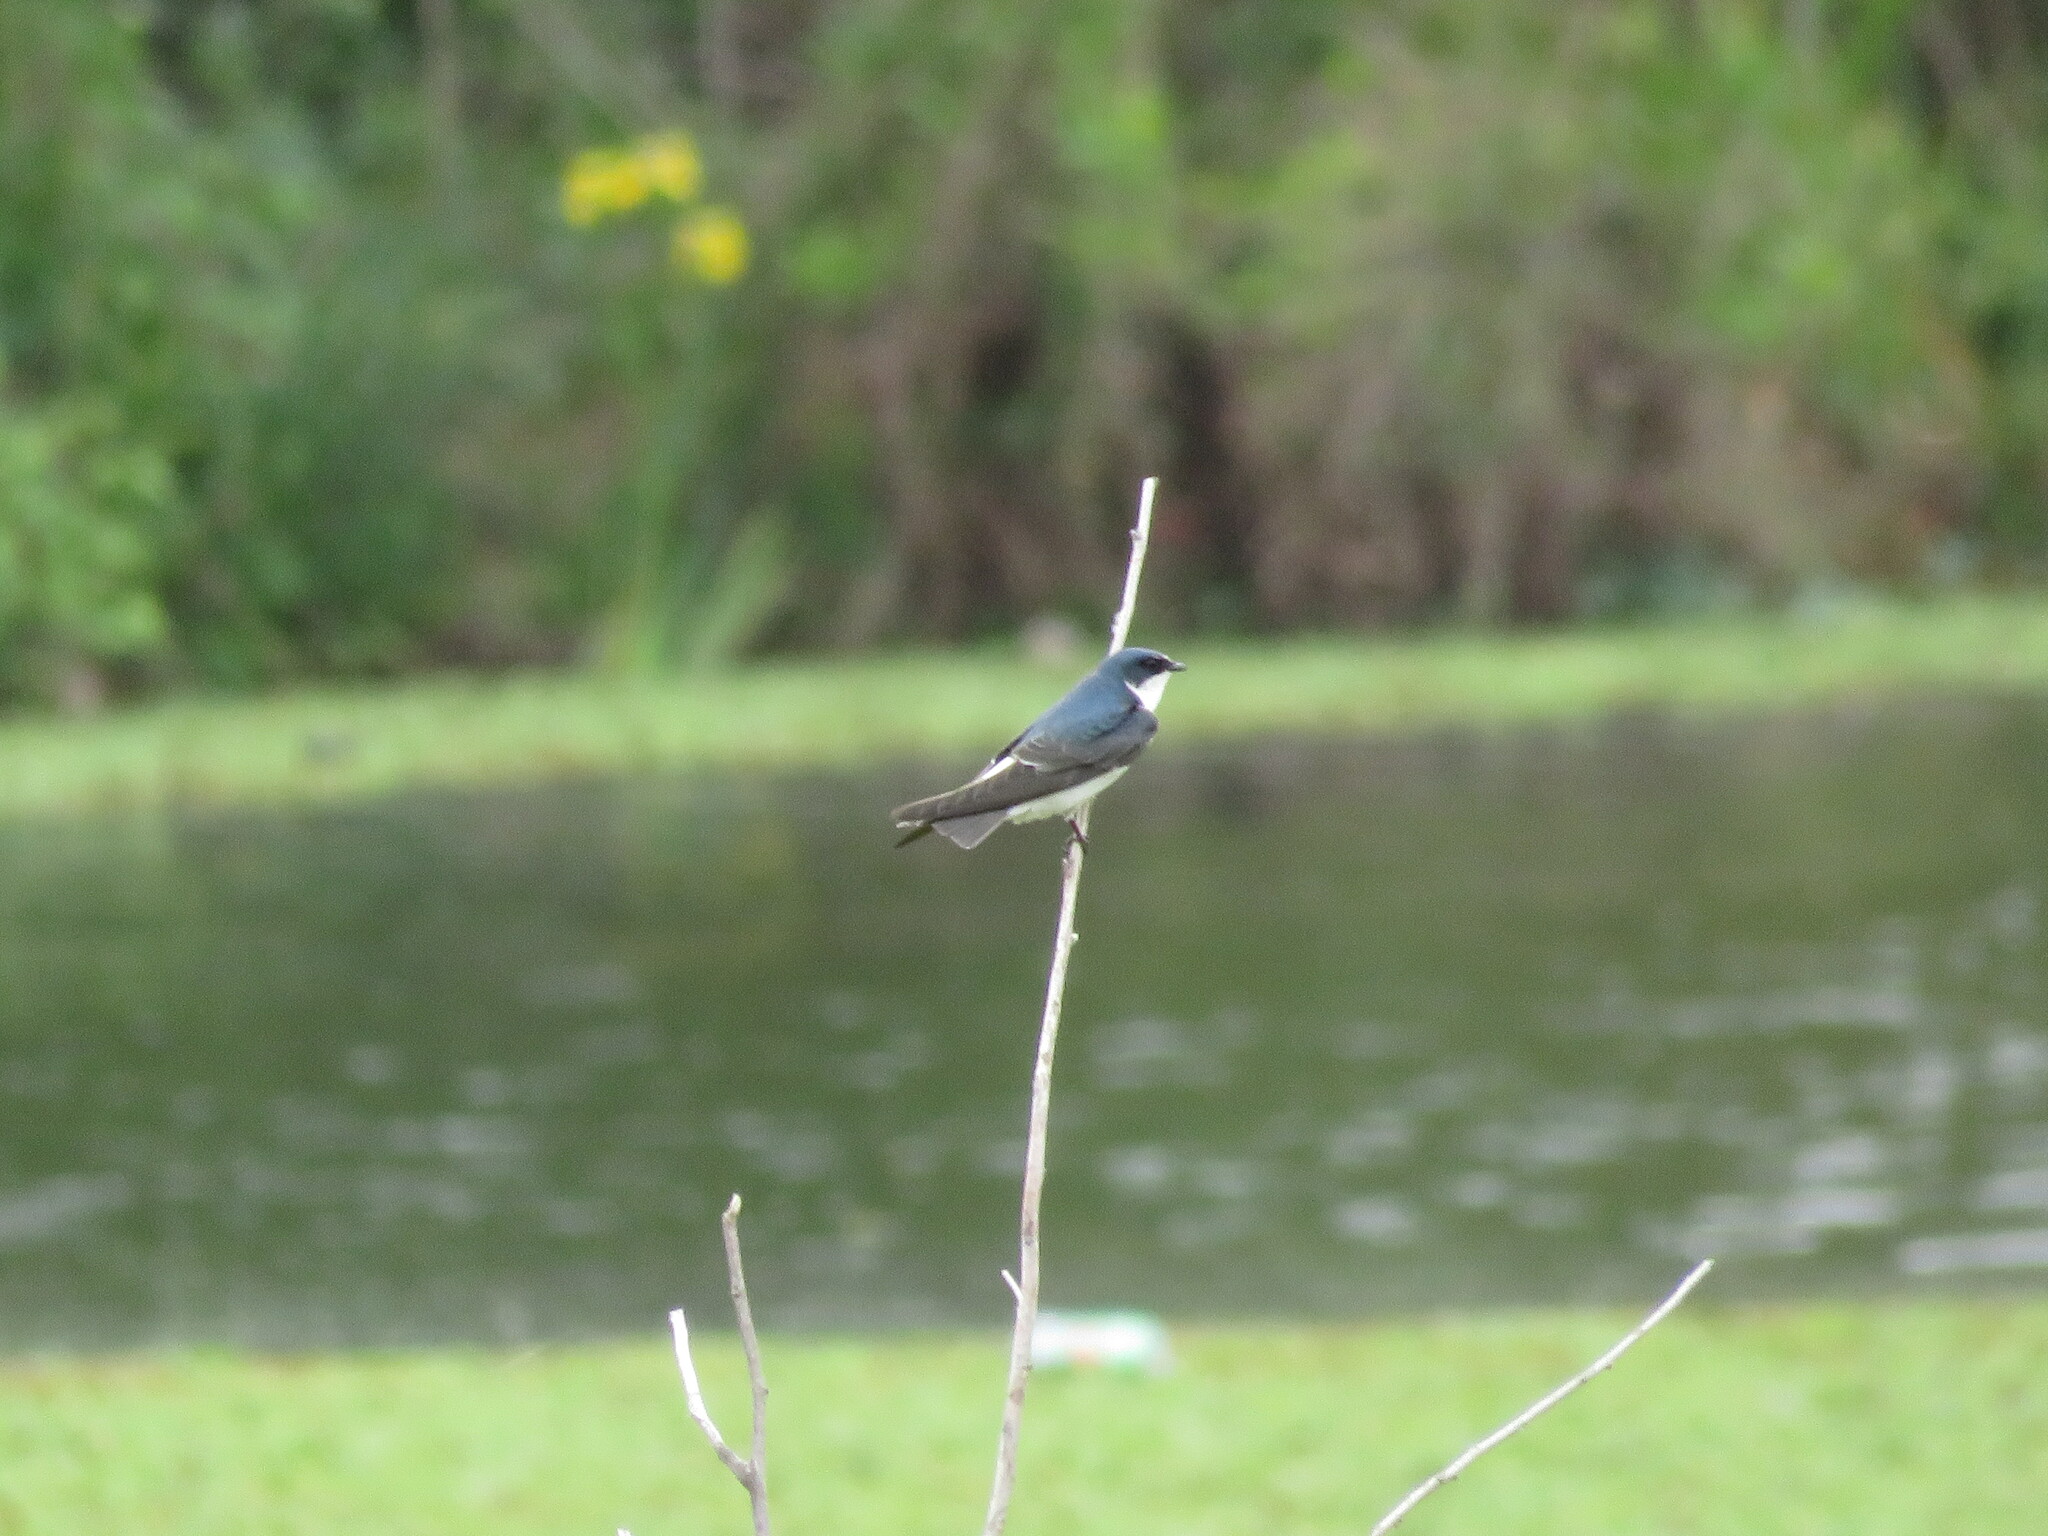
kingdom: Animalia
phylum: Chordata
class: Aves
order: Passeriformes
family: Hirundinidae
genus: Tachycineta
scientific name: Tachycineta leucorrhoa
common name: White-rumped swallow
